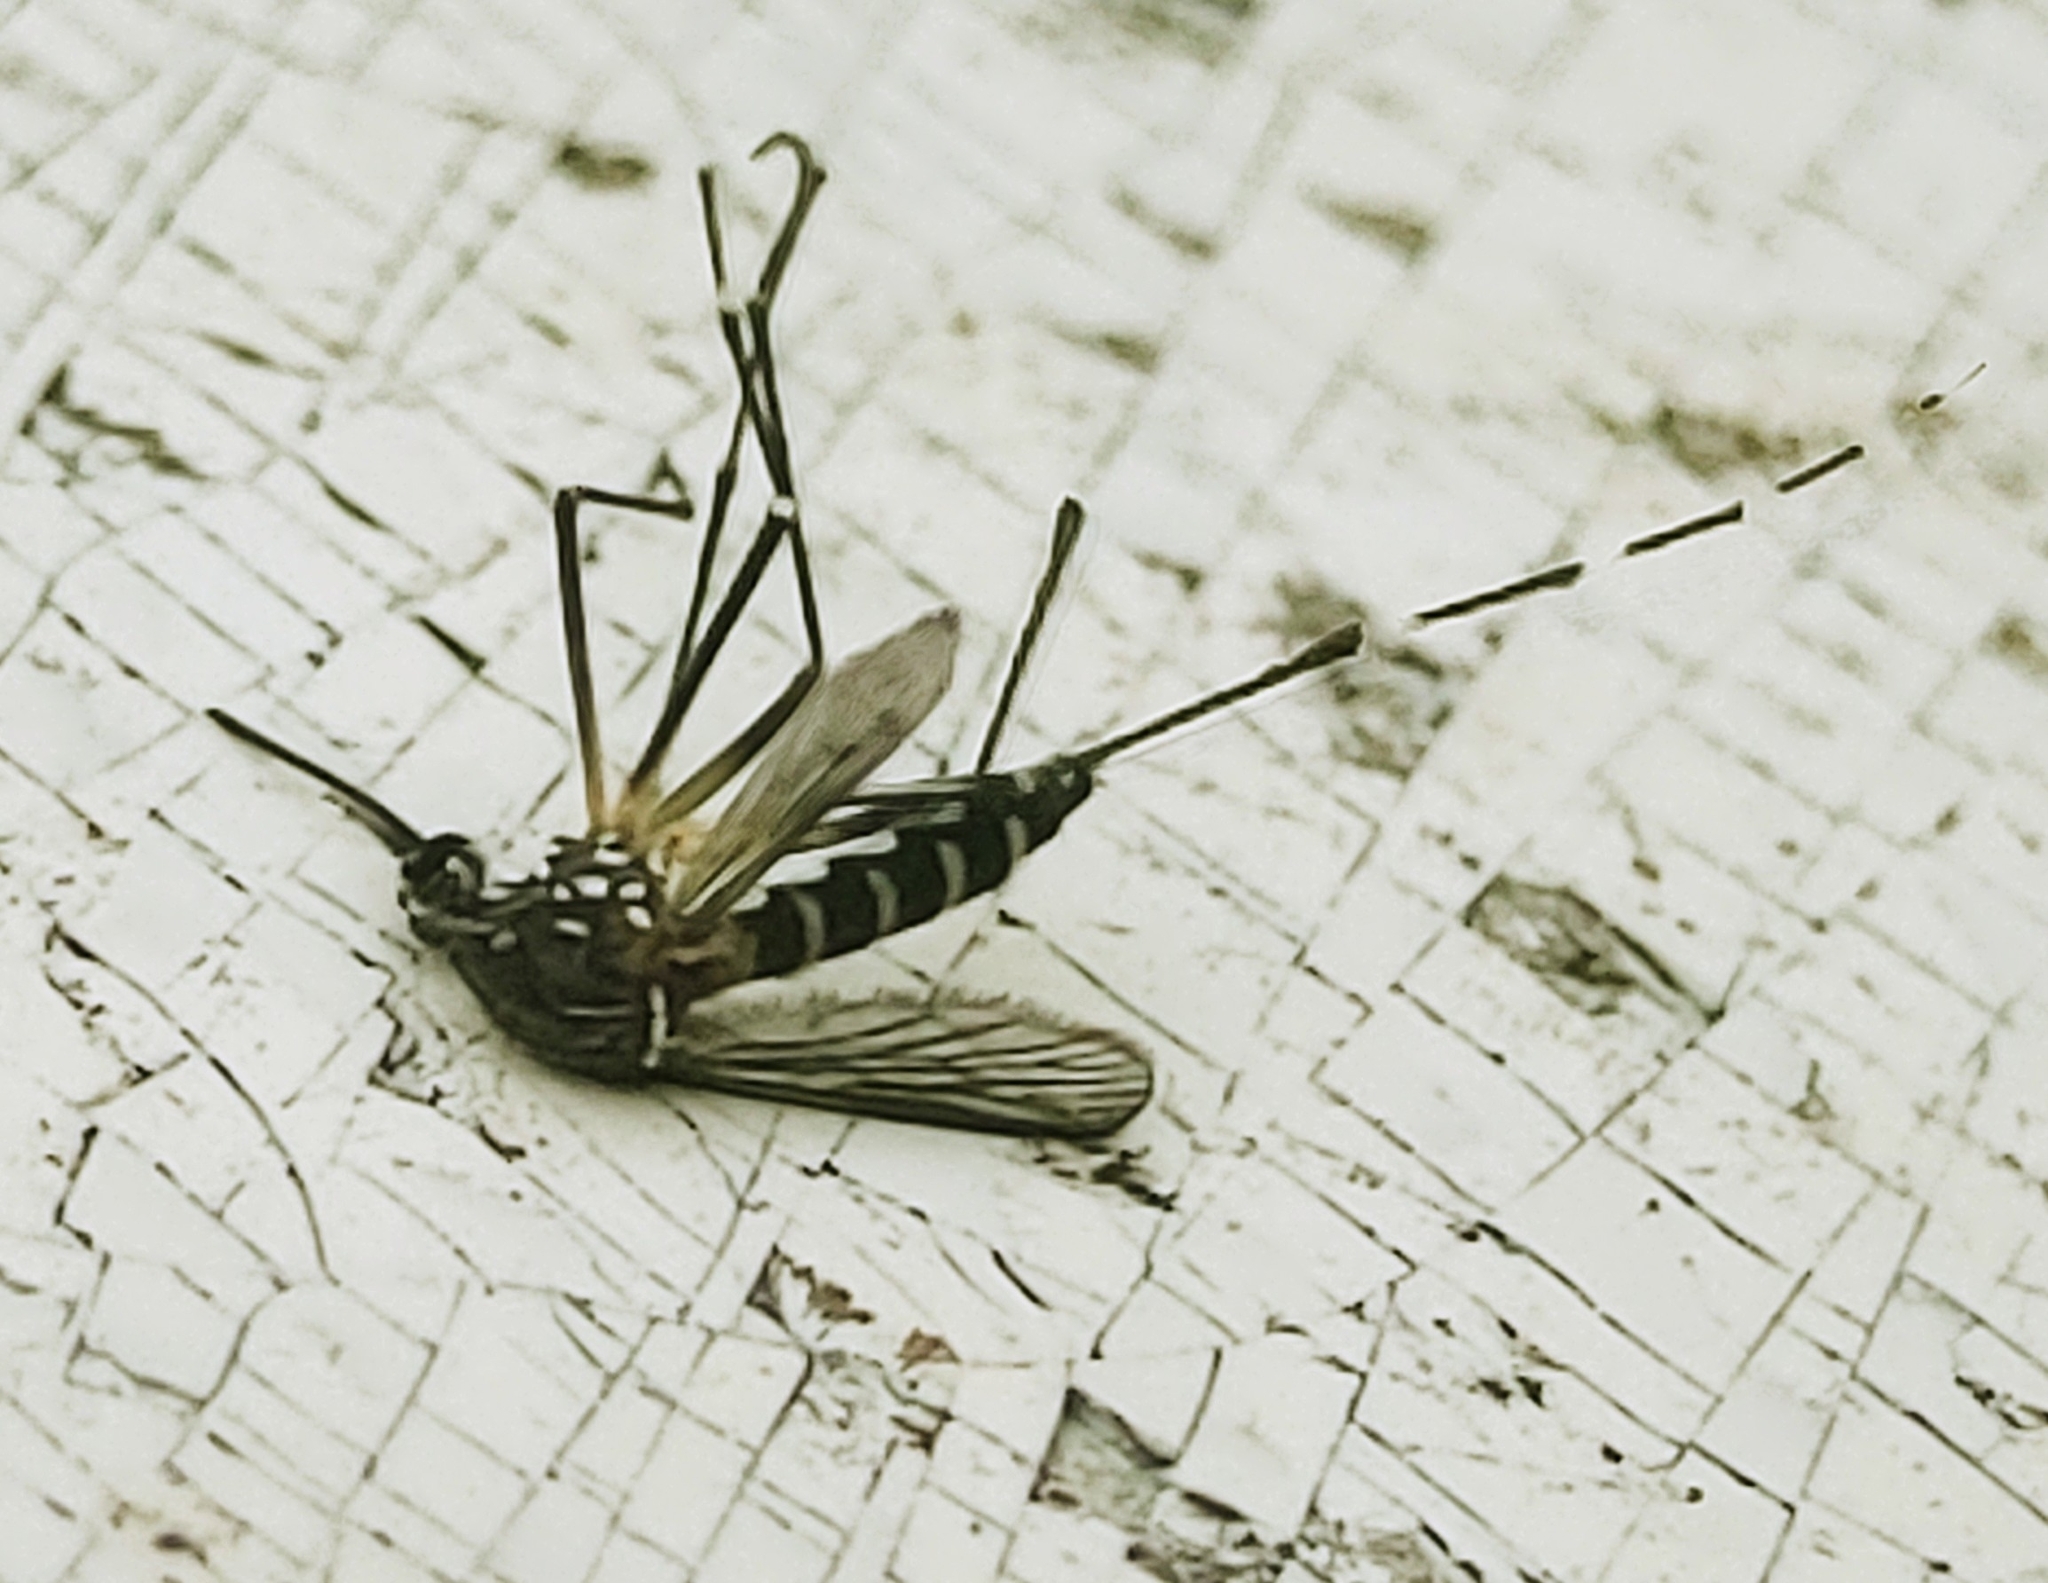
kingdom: Animalia
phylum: Arthropoda
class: Insecta
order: Diptera
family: Culicidae
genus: Aedes
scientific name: Aedes aegypti
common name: Yellow fever mosquito
